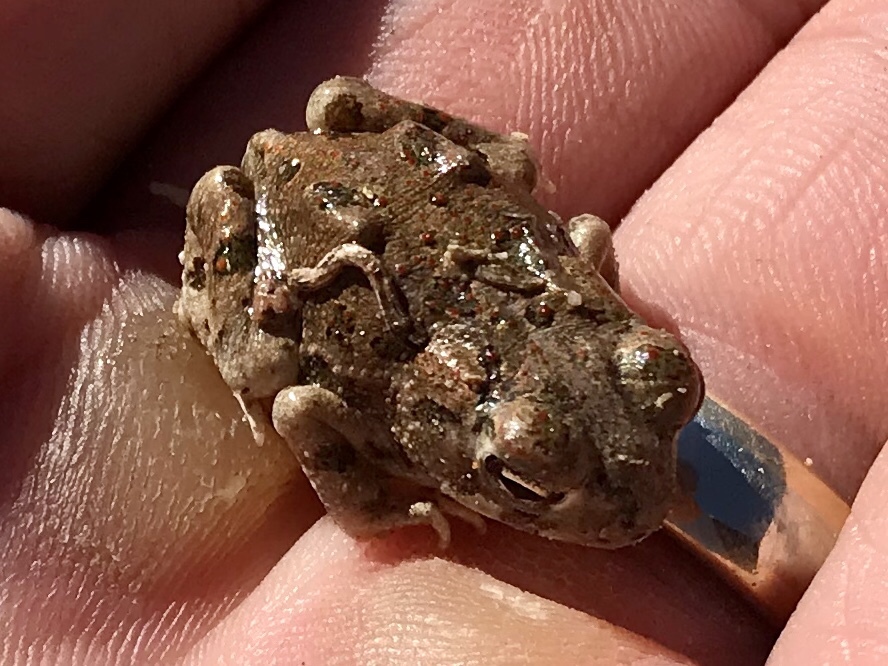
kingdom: Animalia
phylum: Chordata
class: Amphibia
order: Anura
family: Bufonidae
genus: Anaxyrus
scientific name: Anaxyrus cognatus
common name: Great plains toad
